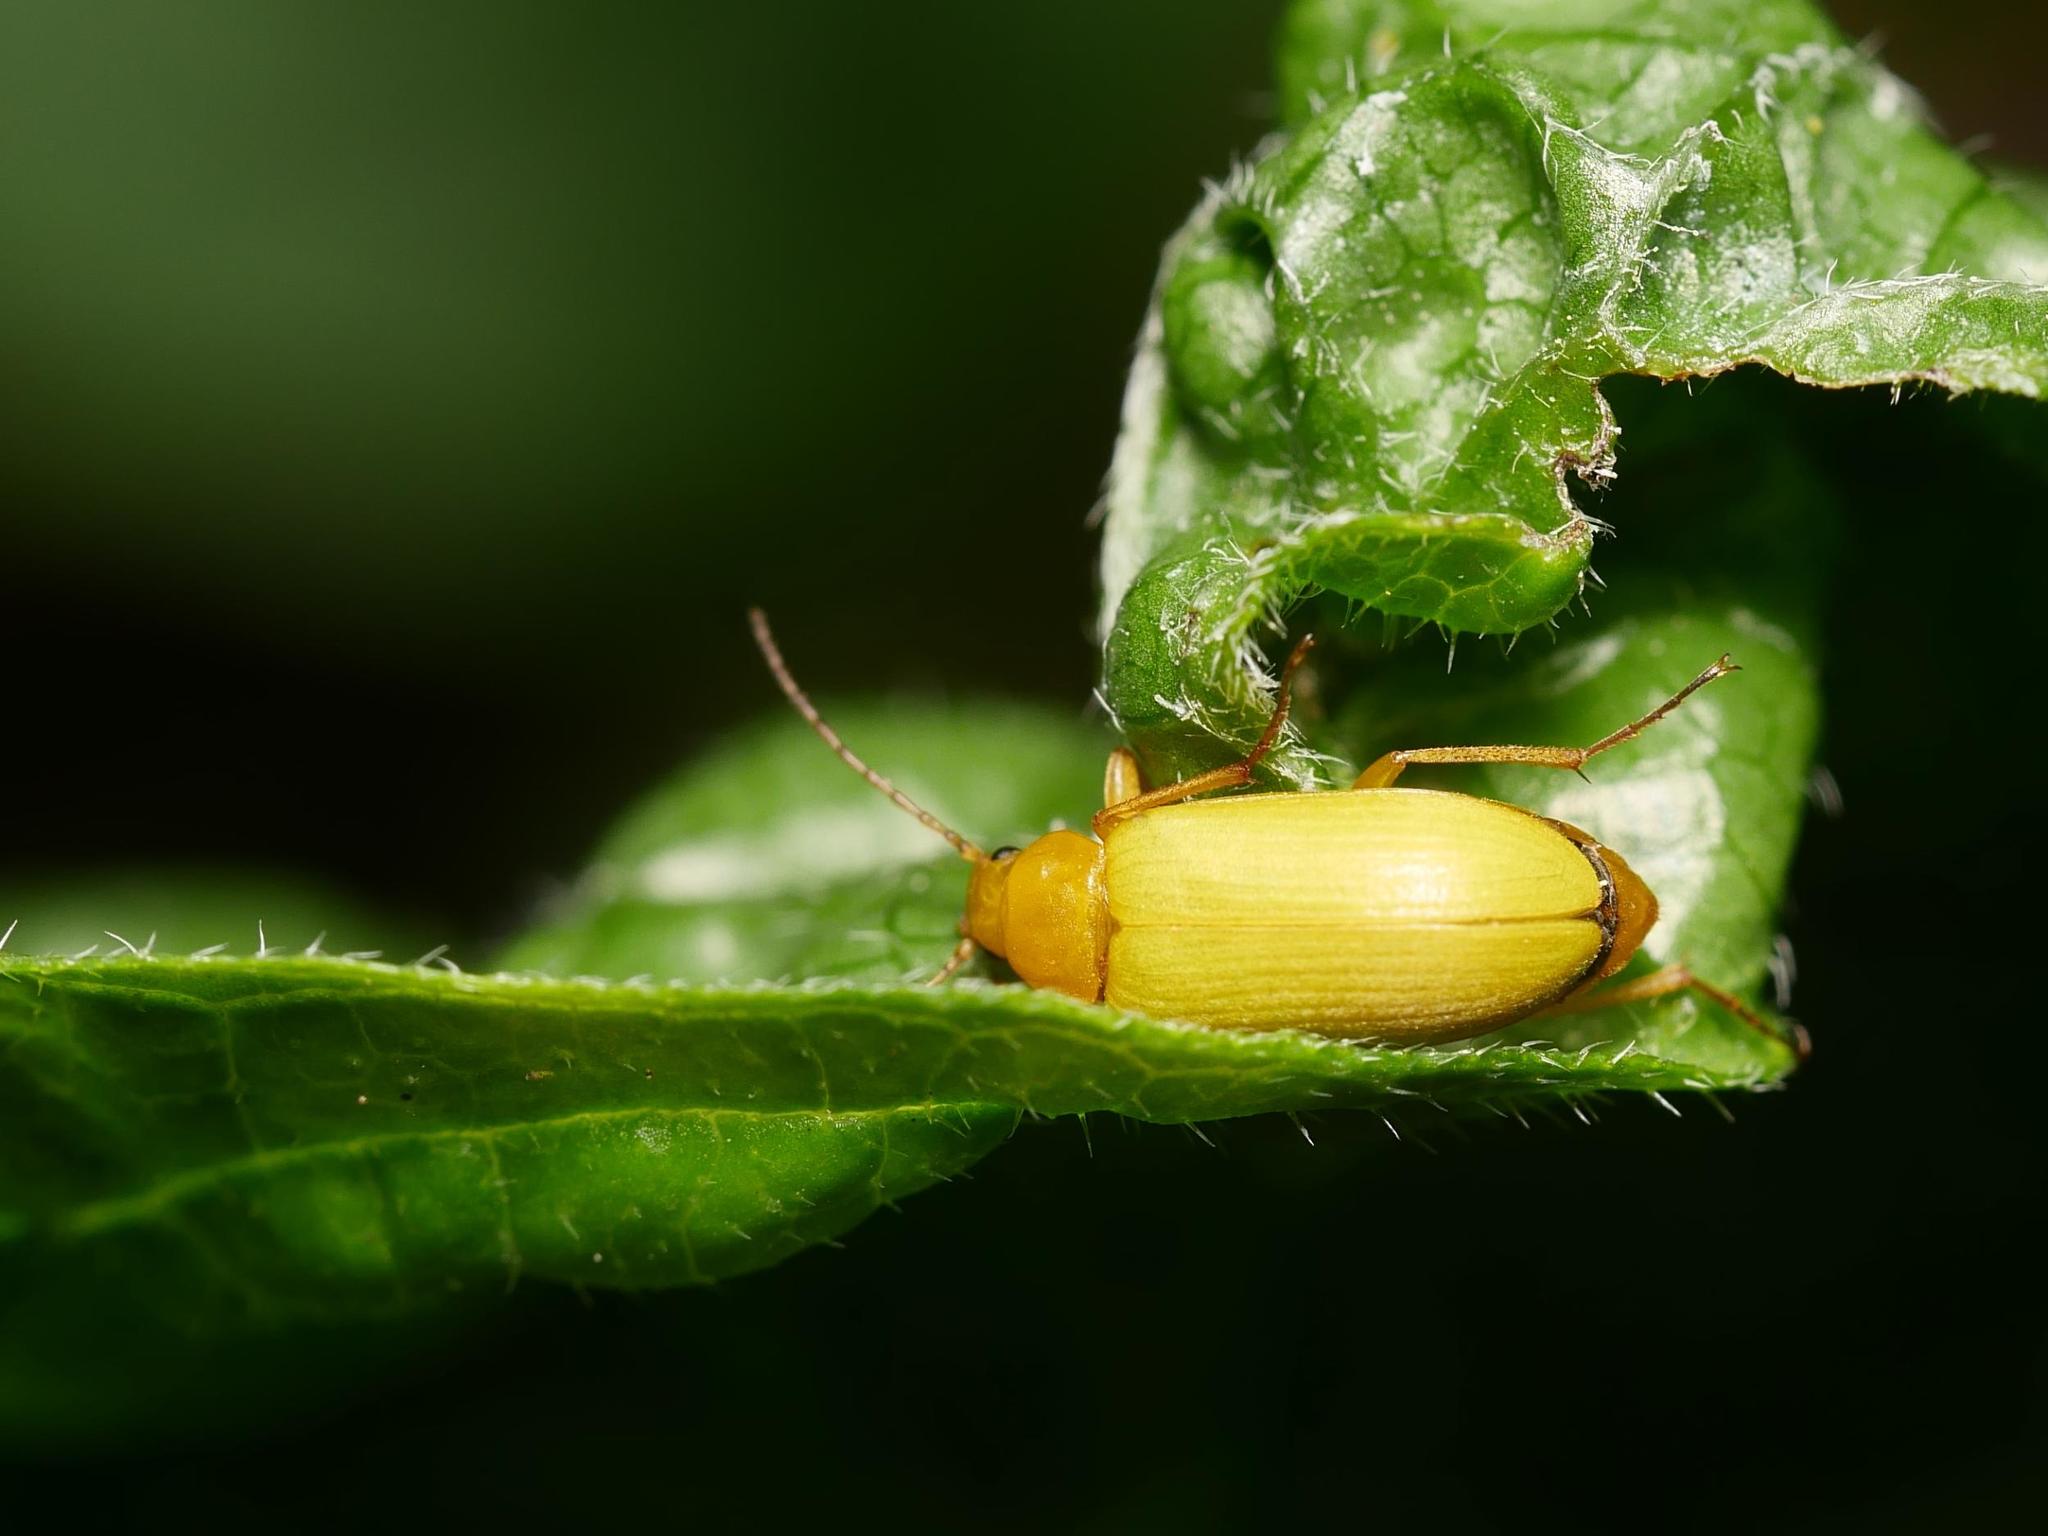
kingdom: Animalia
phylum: Arthropoda
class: Insecta
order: Coleoptera
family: Tenebrionidae
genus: Cteniopus
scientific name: Cteniopus sulphureus
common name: Sulphur beetle
